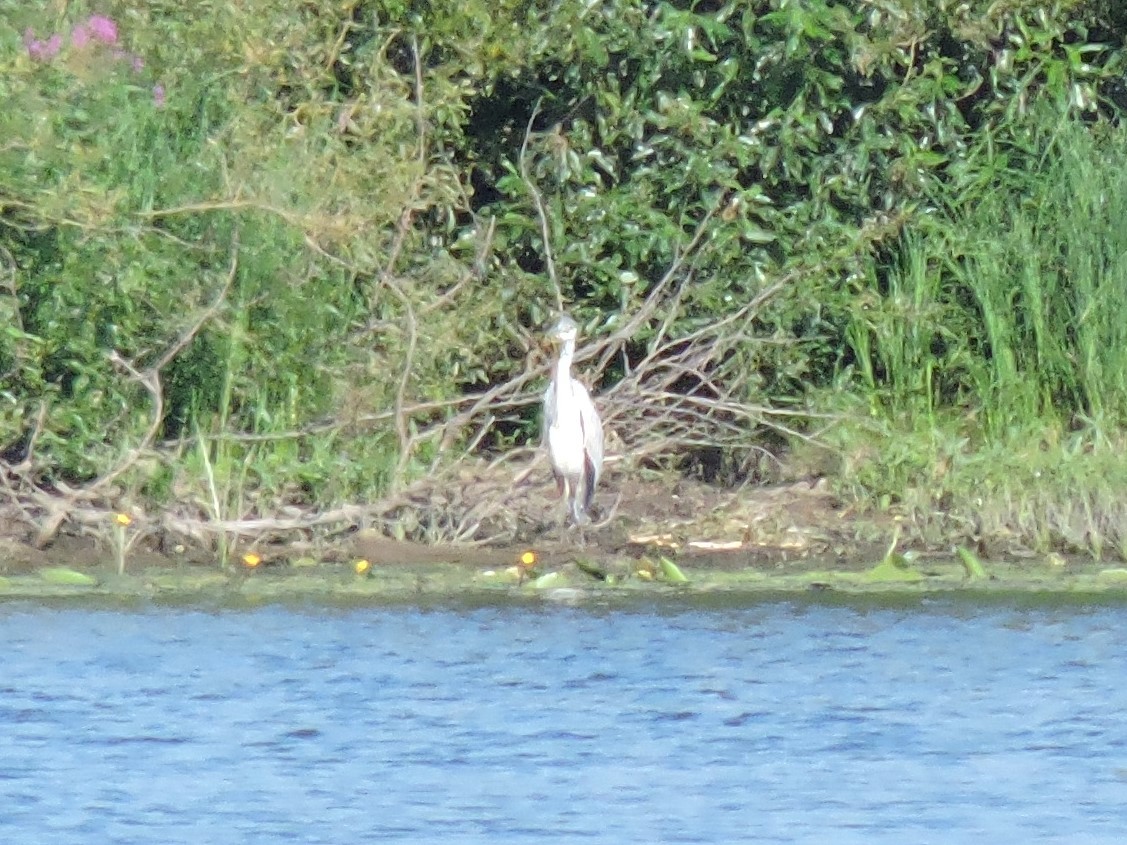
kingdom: Animalia
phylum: Chordata
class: Aves
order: Pelecaniformes
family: Ardeidae
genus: Ardea
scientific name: Ardea cinerea
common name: Grey heron
